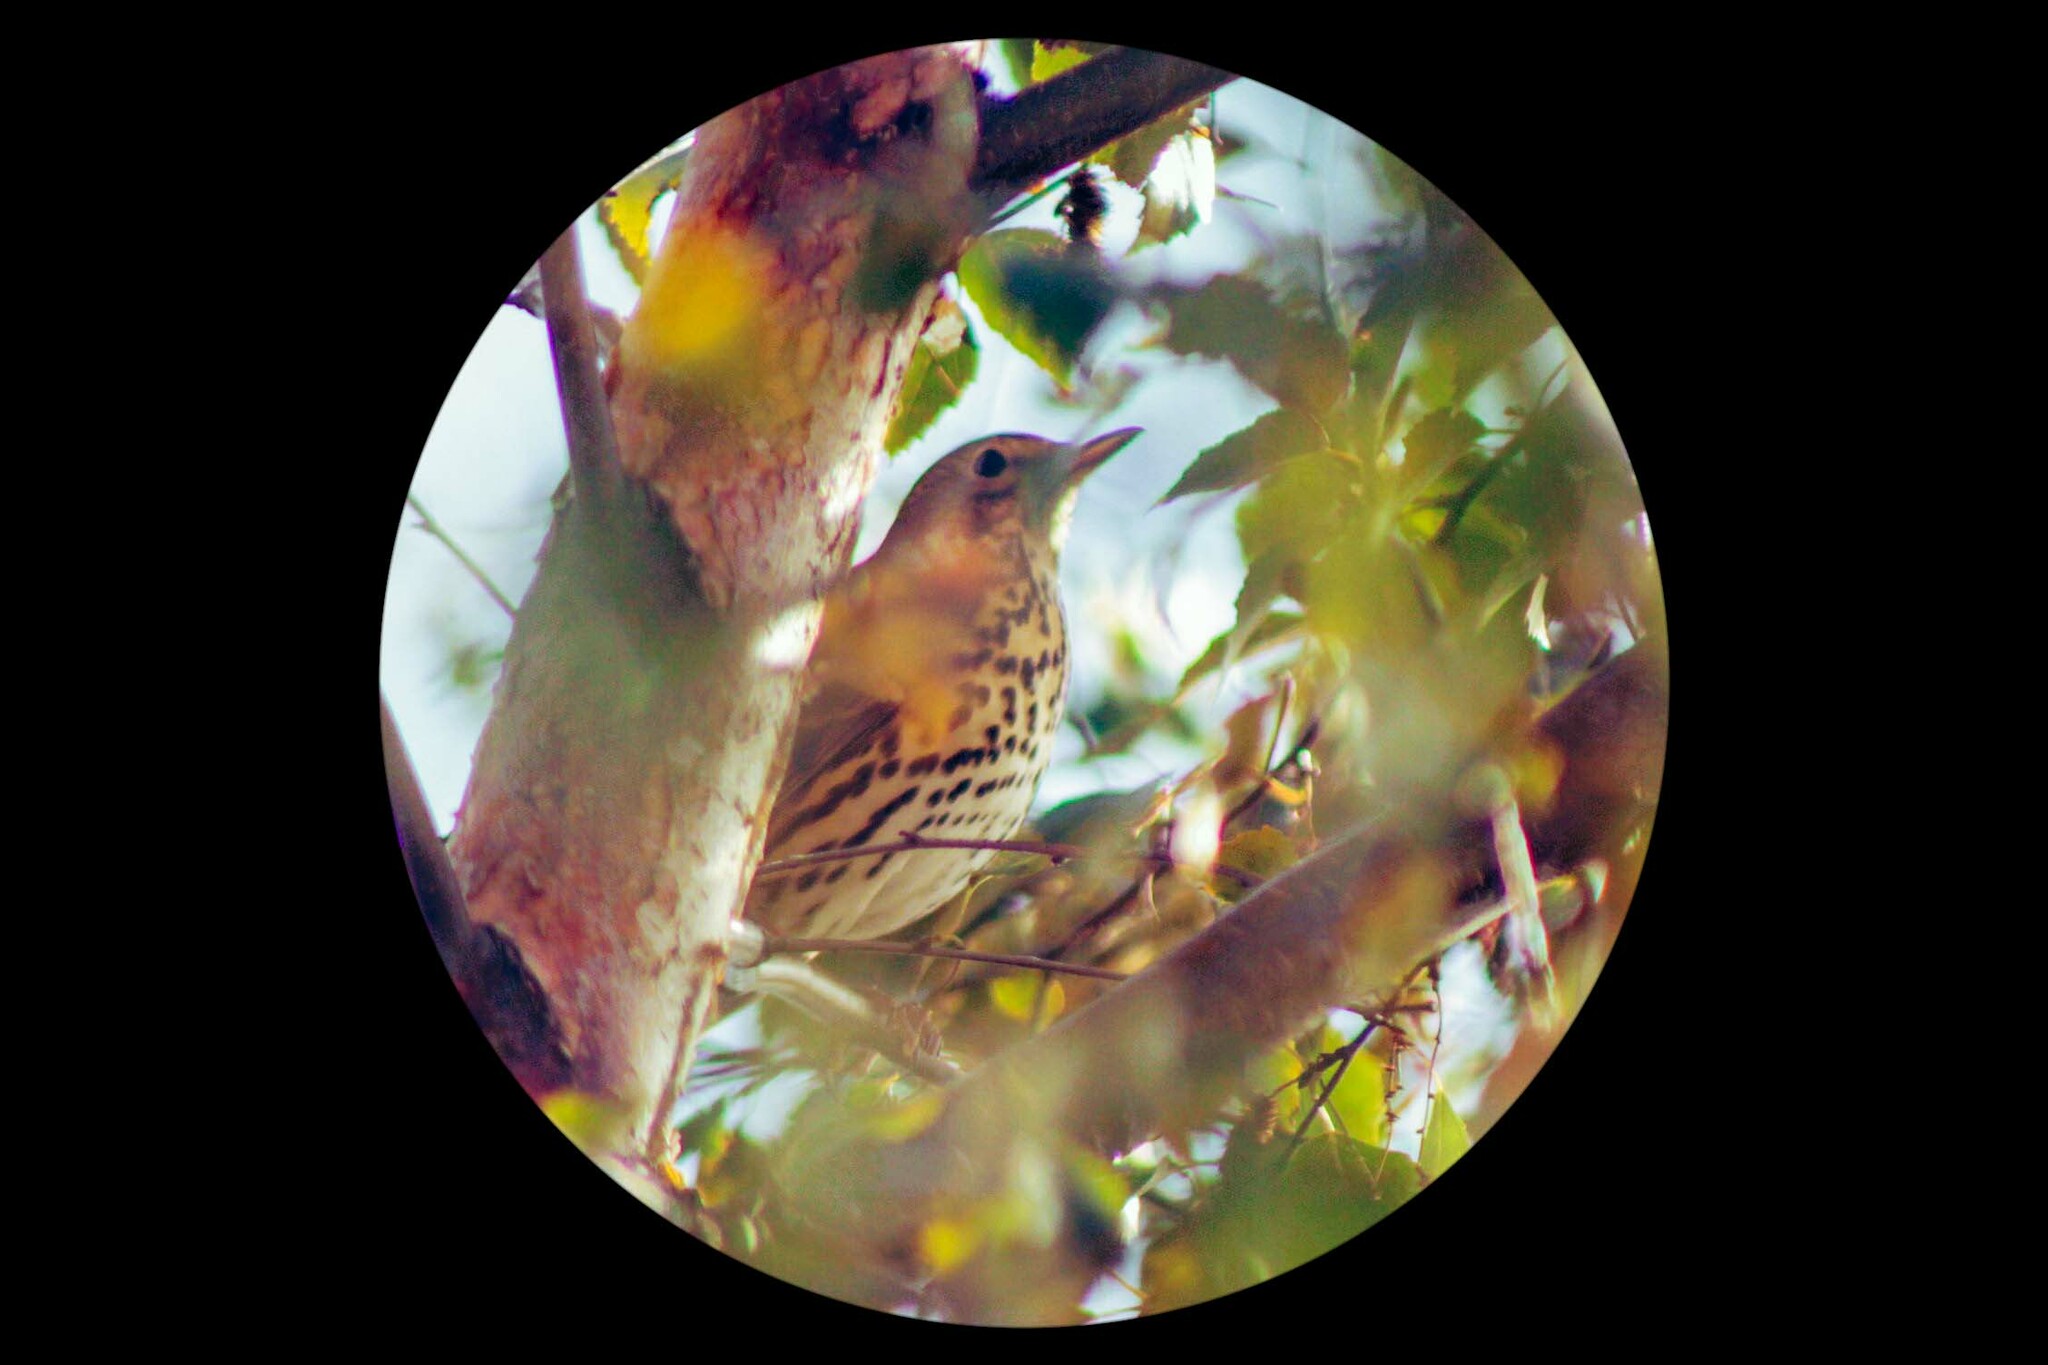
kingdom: Animalia
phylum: Chordata
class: Aves
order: Passeriformes
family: Turdidae
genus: Turdus
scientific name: Turdus philomelos
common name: Song thrush
